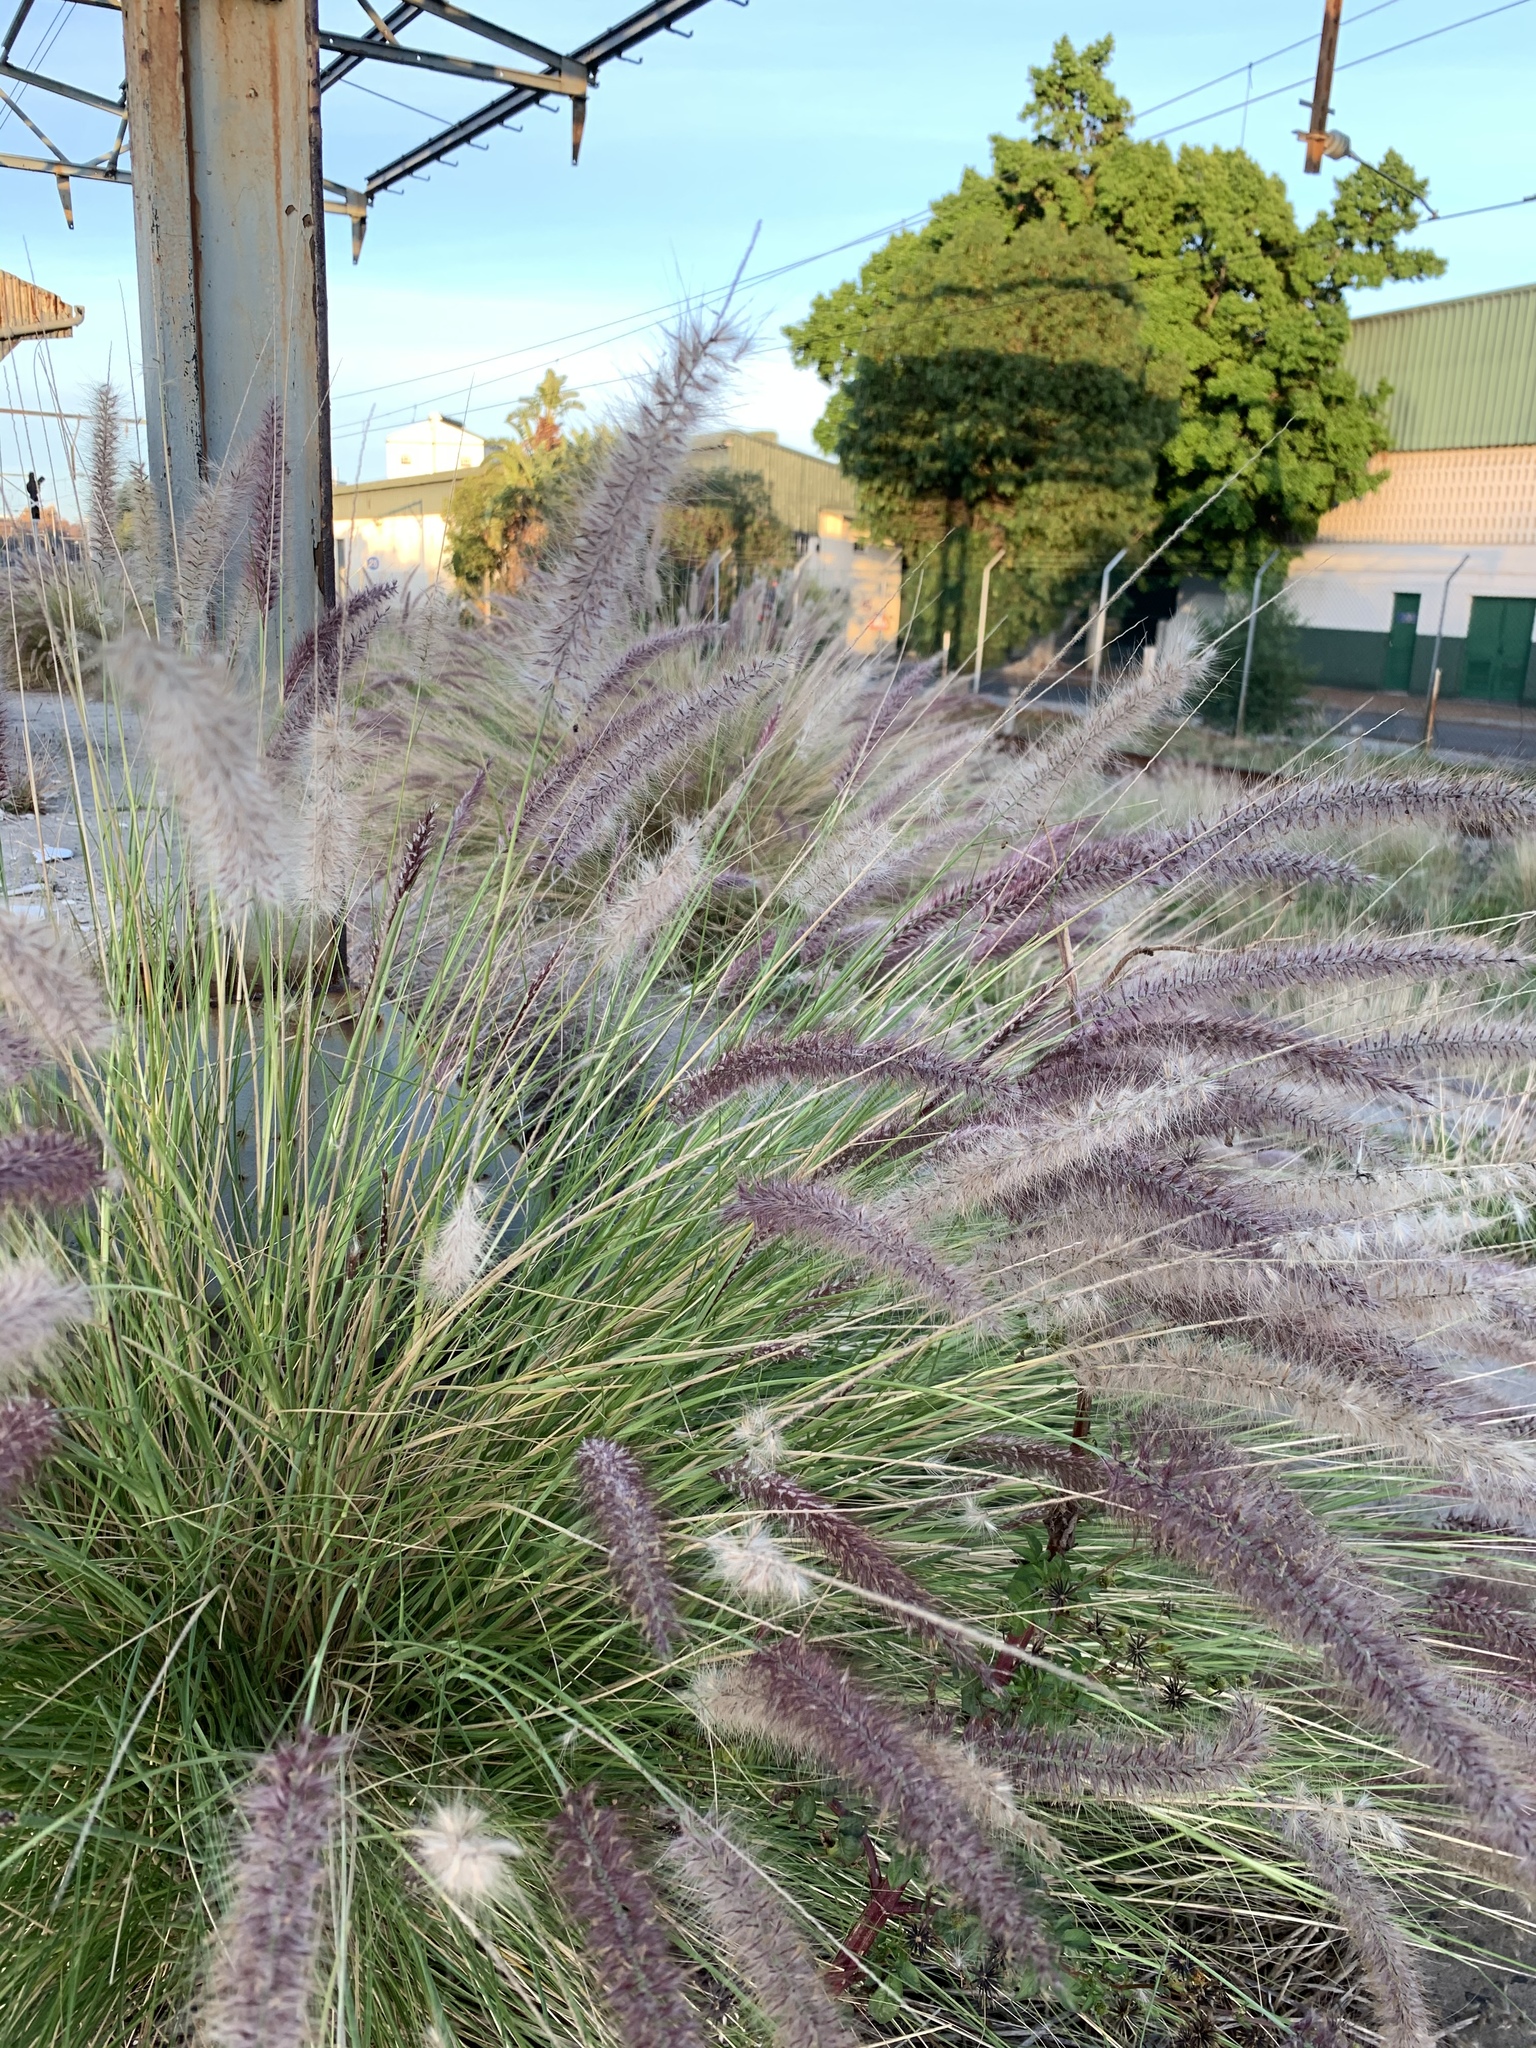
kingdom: Plantae
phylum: Tracheophyta
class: Liliopsida
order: Poales
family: Poaceae
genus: Cenchrus
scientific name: Cenchrus setaceus
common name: Crimson fountaingrass
